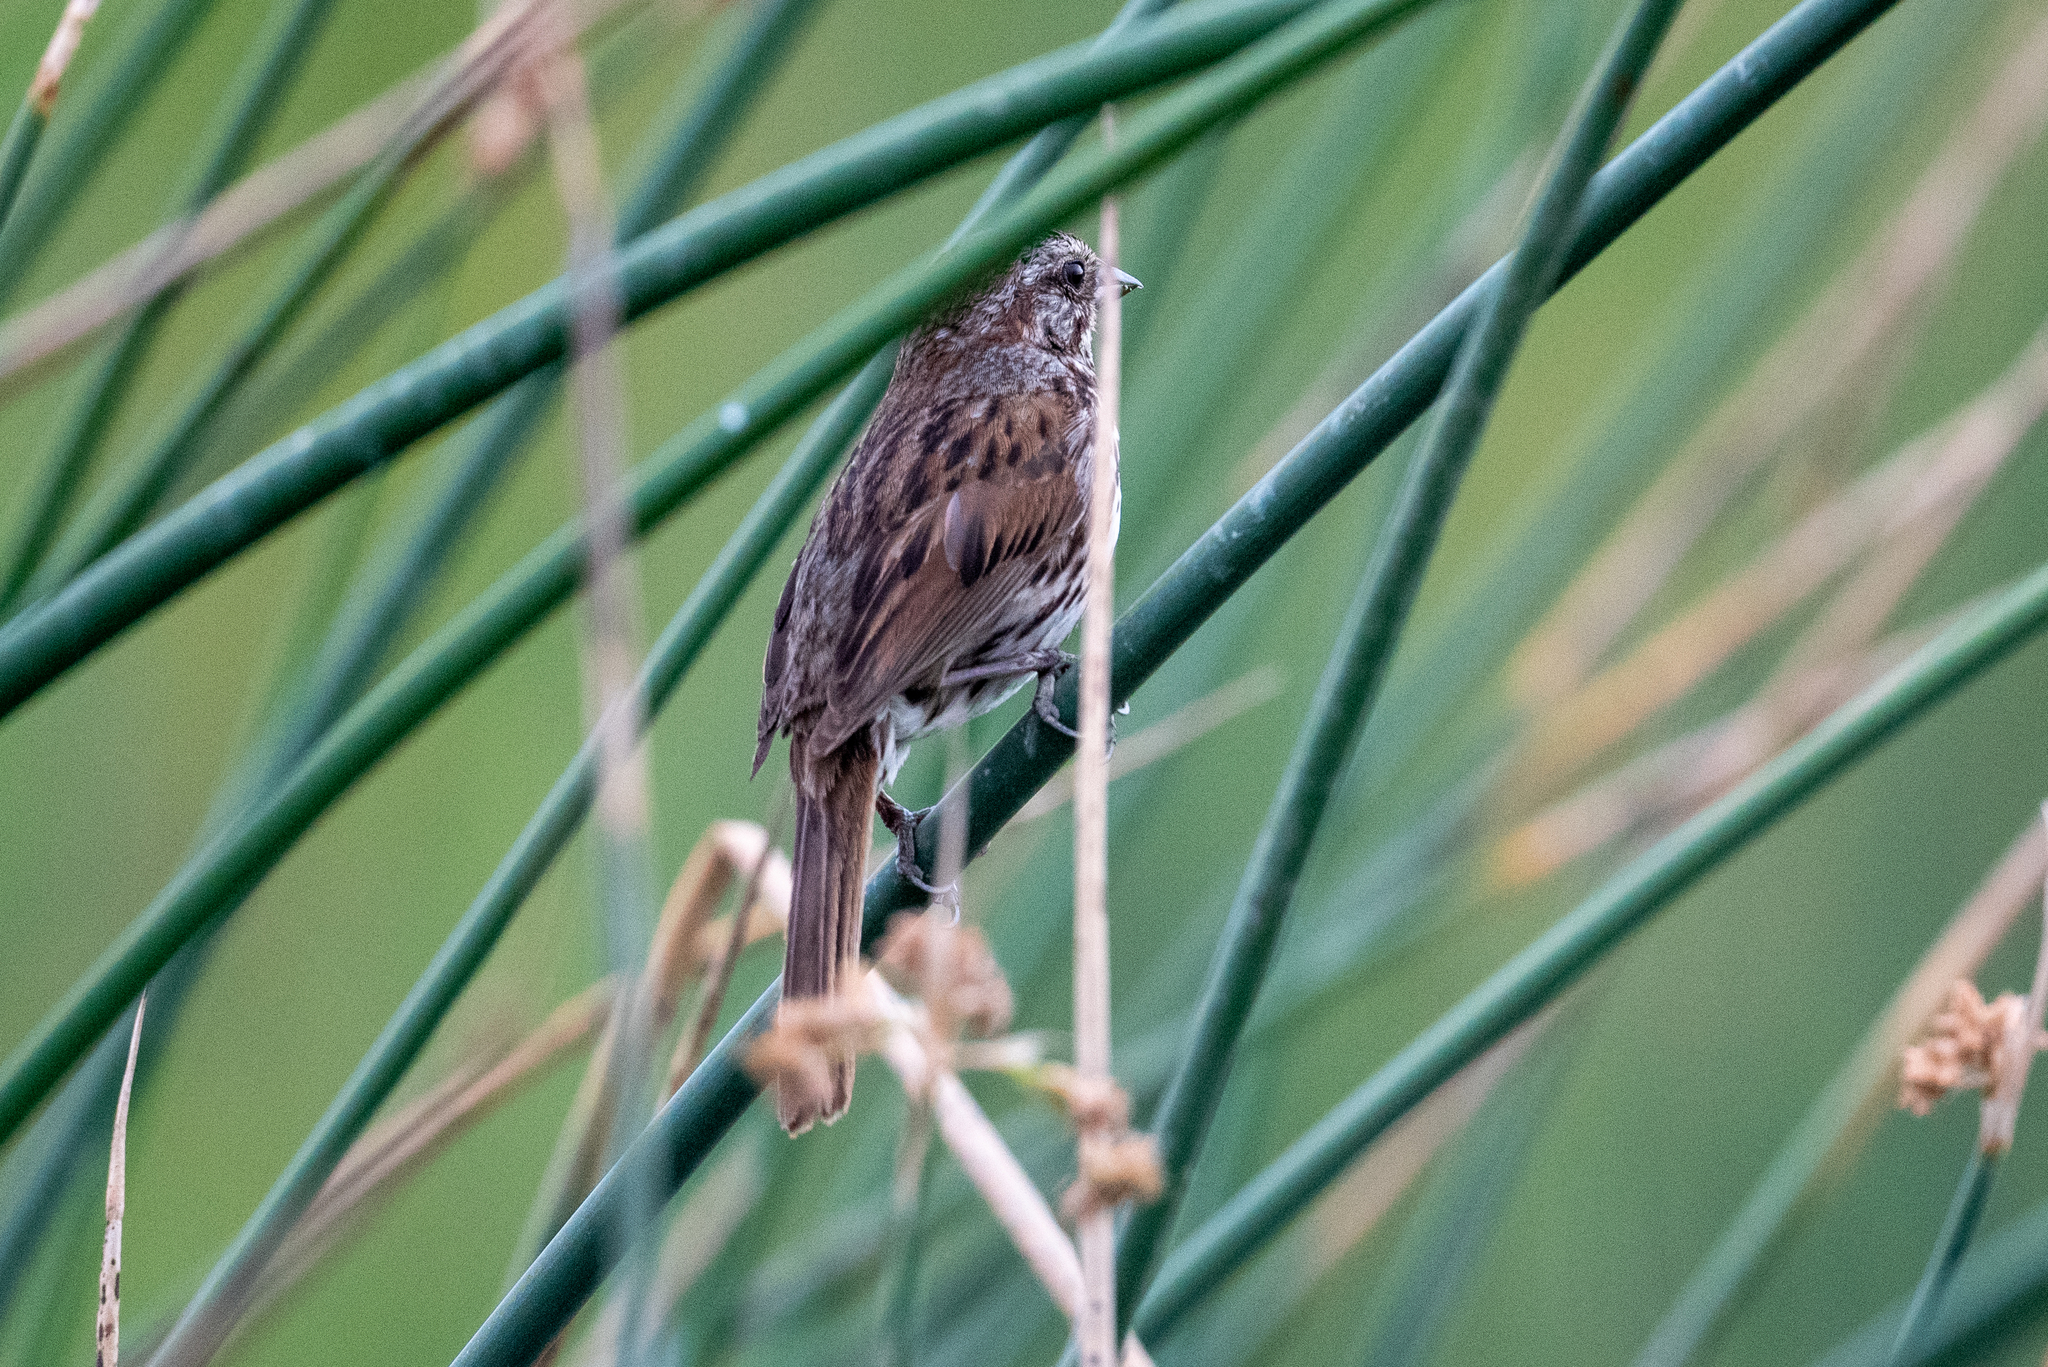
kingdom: Animalia
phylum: Chordata
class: Aves
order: Passeriformes
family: Passerellidae
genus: Melospiza
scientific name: Melospiza melodia
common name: Song sparrow
